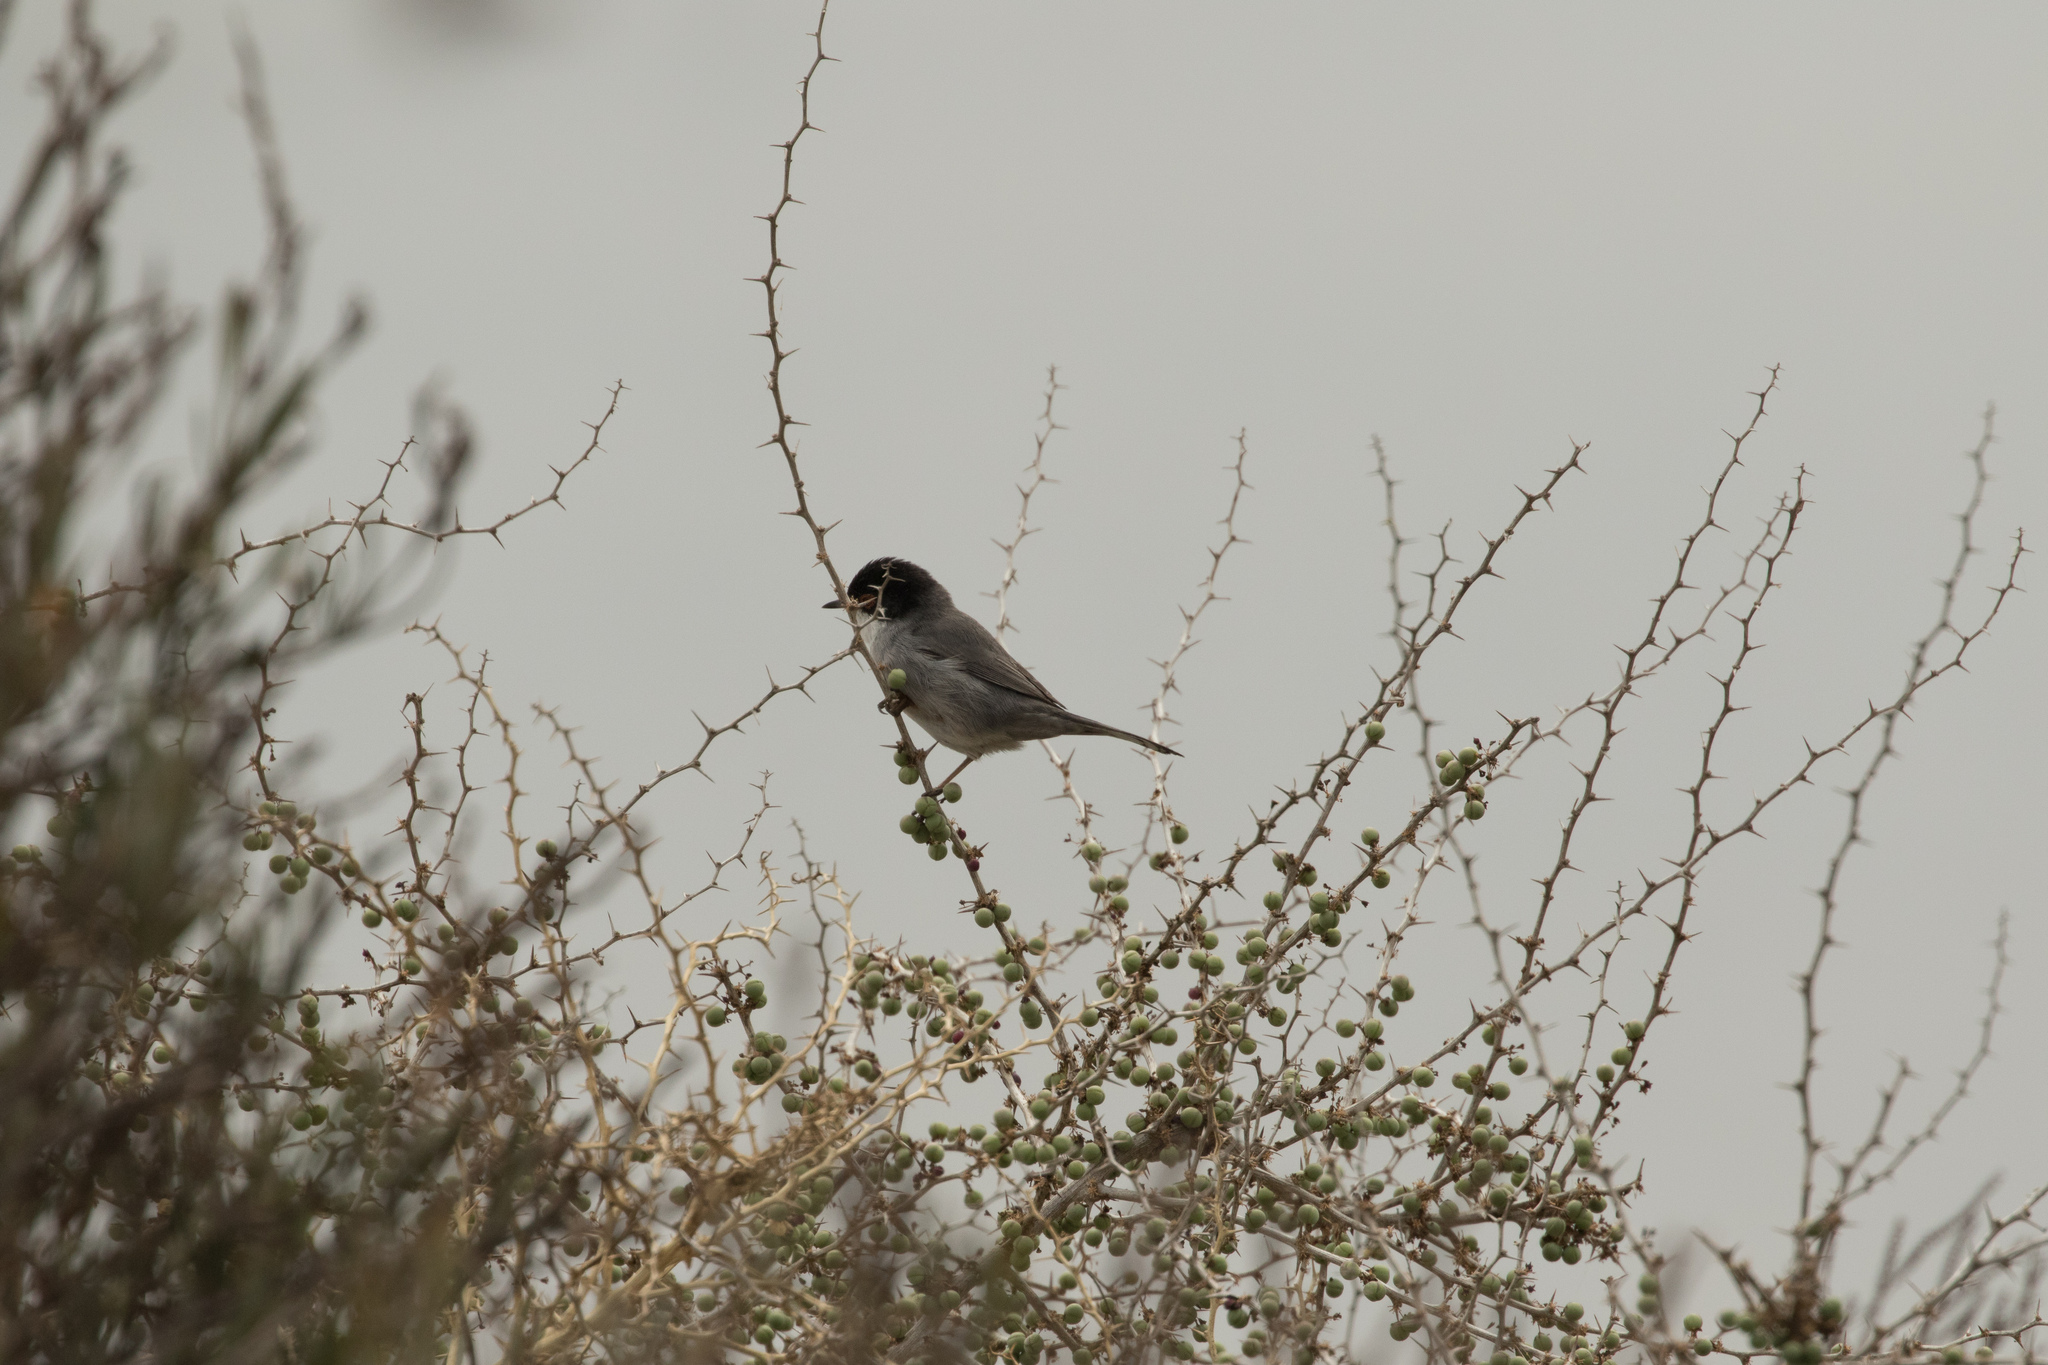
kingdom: Animalia
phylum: Chordata
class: Aves
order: Passeriformes
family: Sylviidae
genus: Curruca
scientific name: Curruca melanocephala
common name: Sardinian warbler
